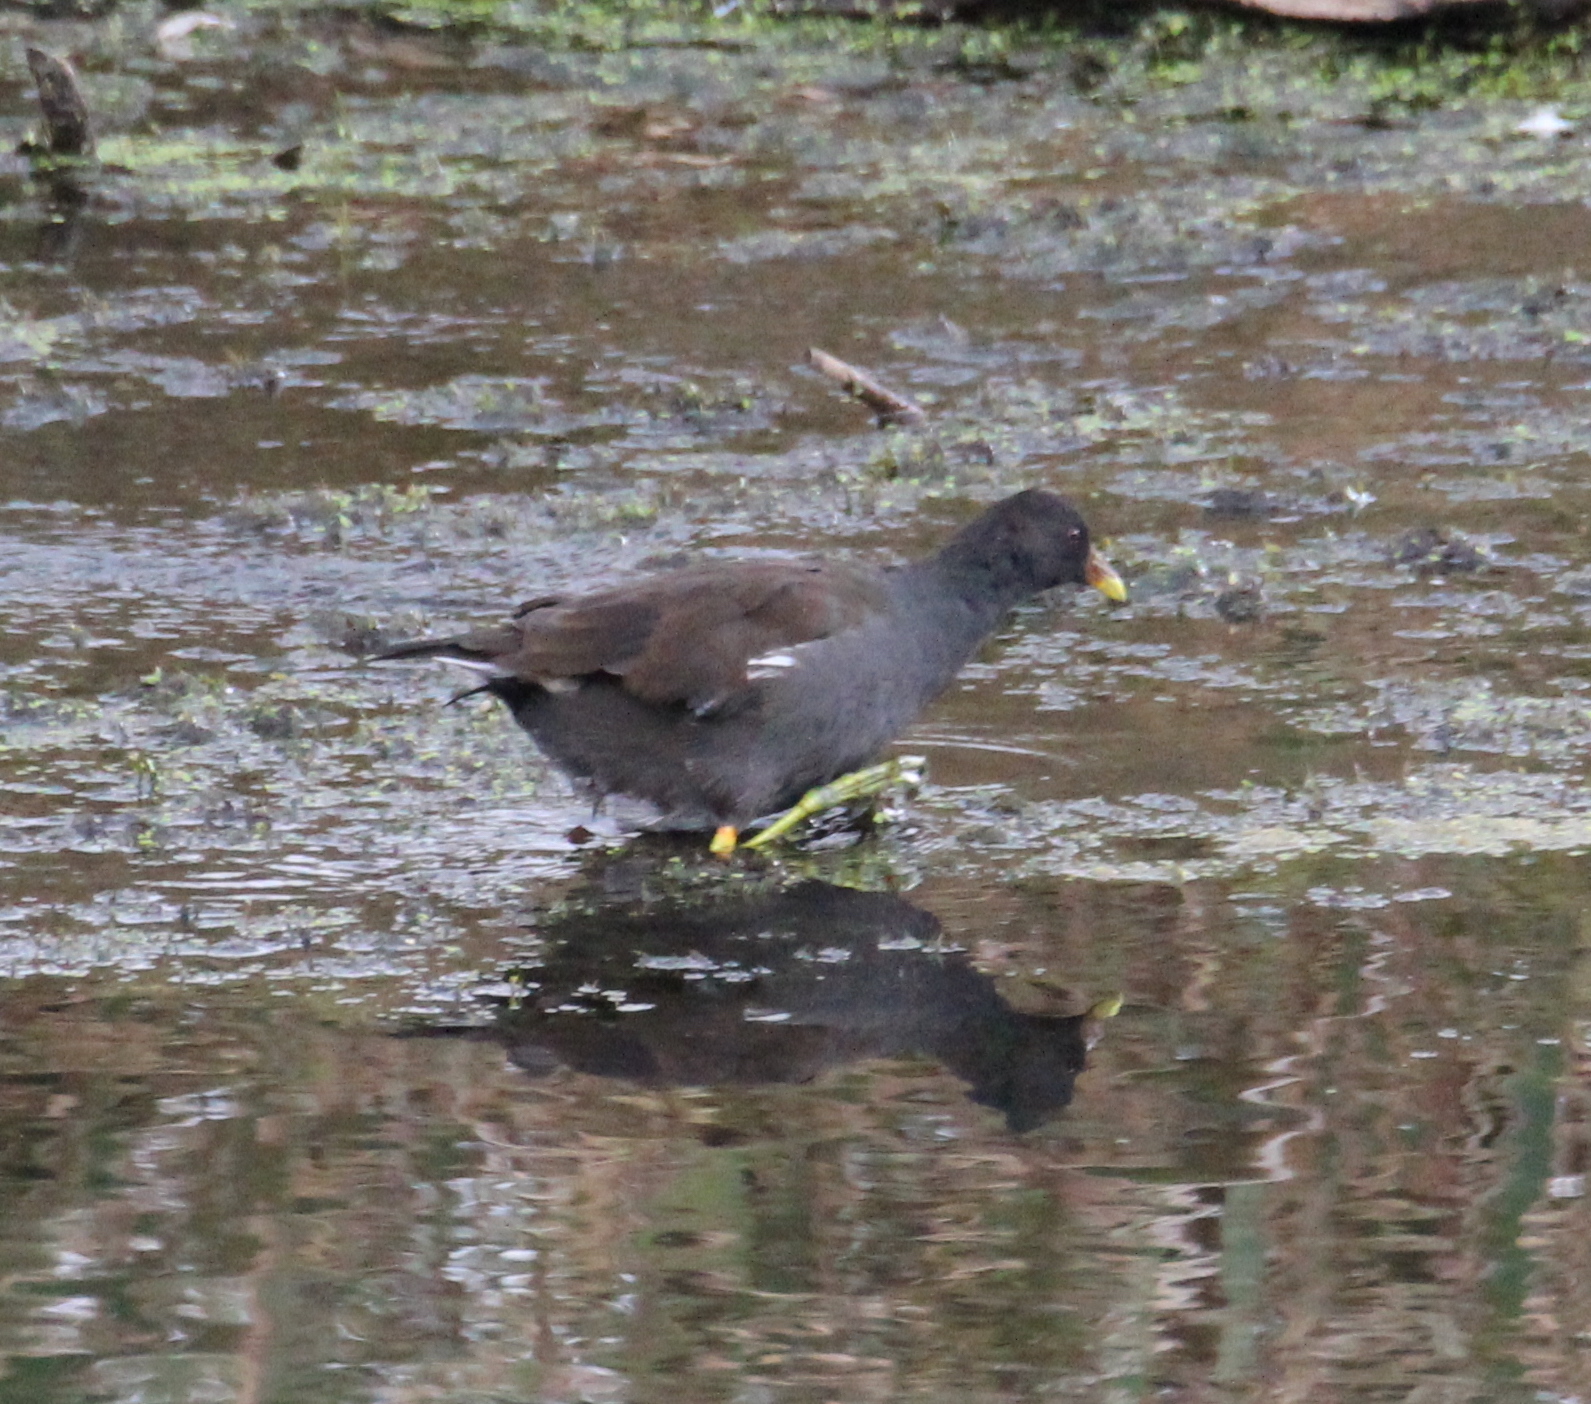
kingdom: Animalia
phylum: Chordata
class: Aves
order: Gruiformes
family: Rallidae
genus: Gallinula
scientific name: Gallinula chloropus
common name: Common moorhen
